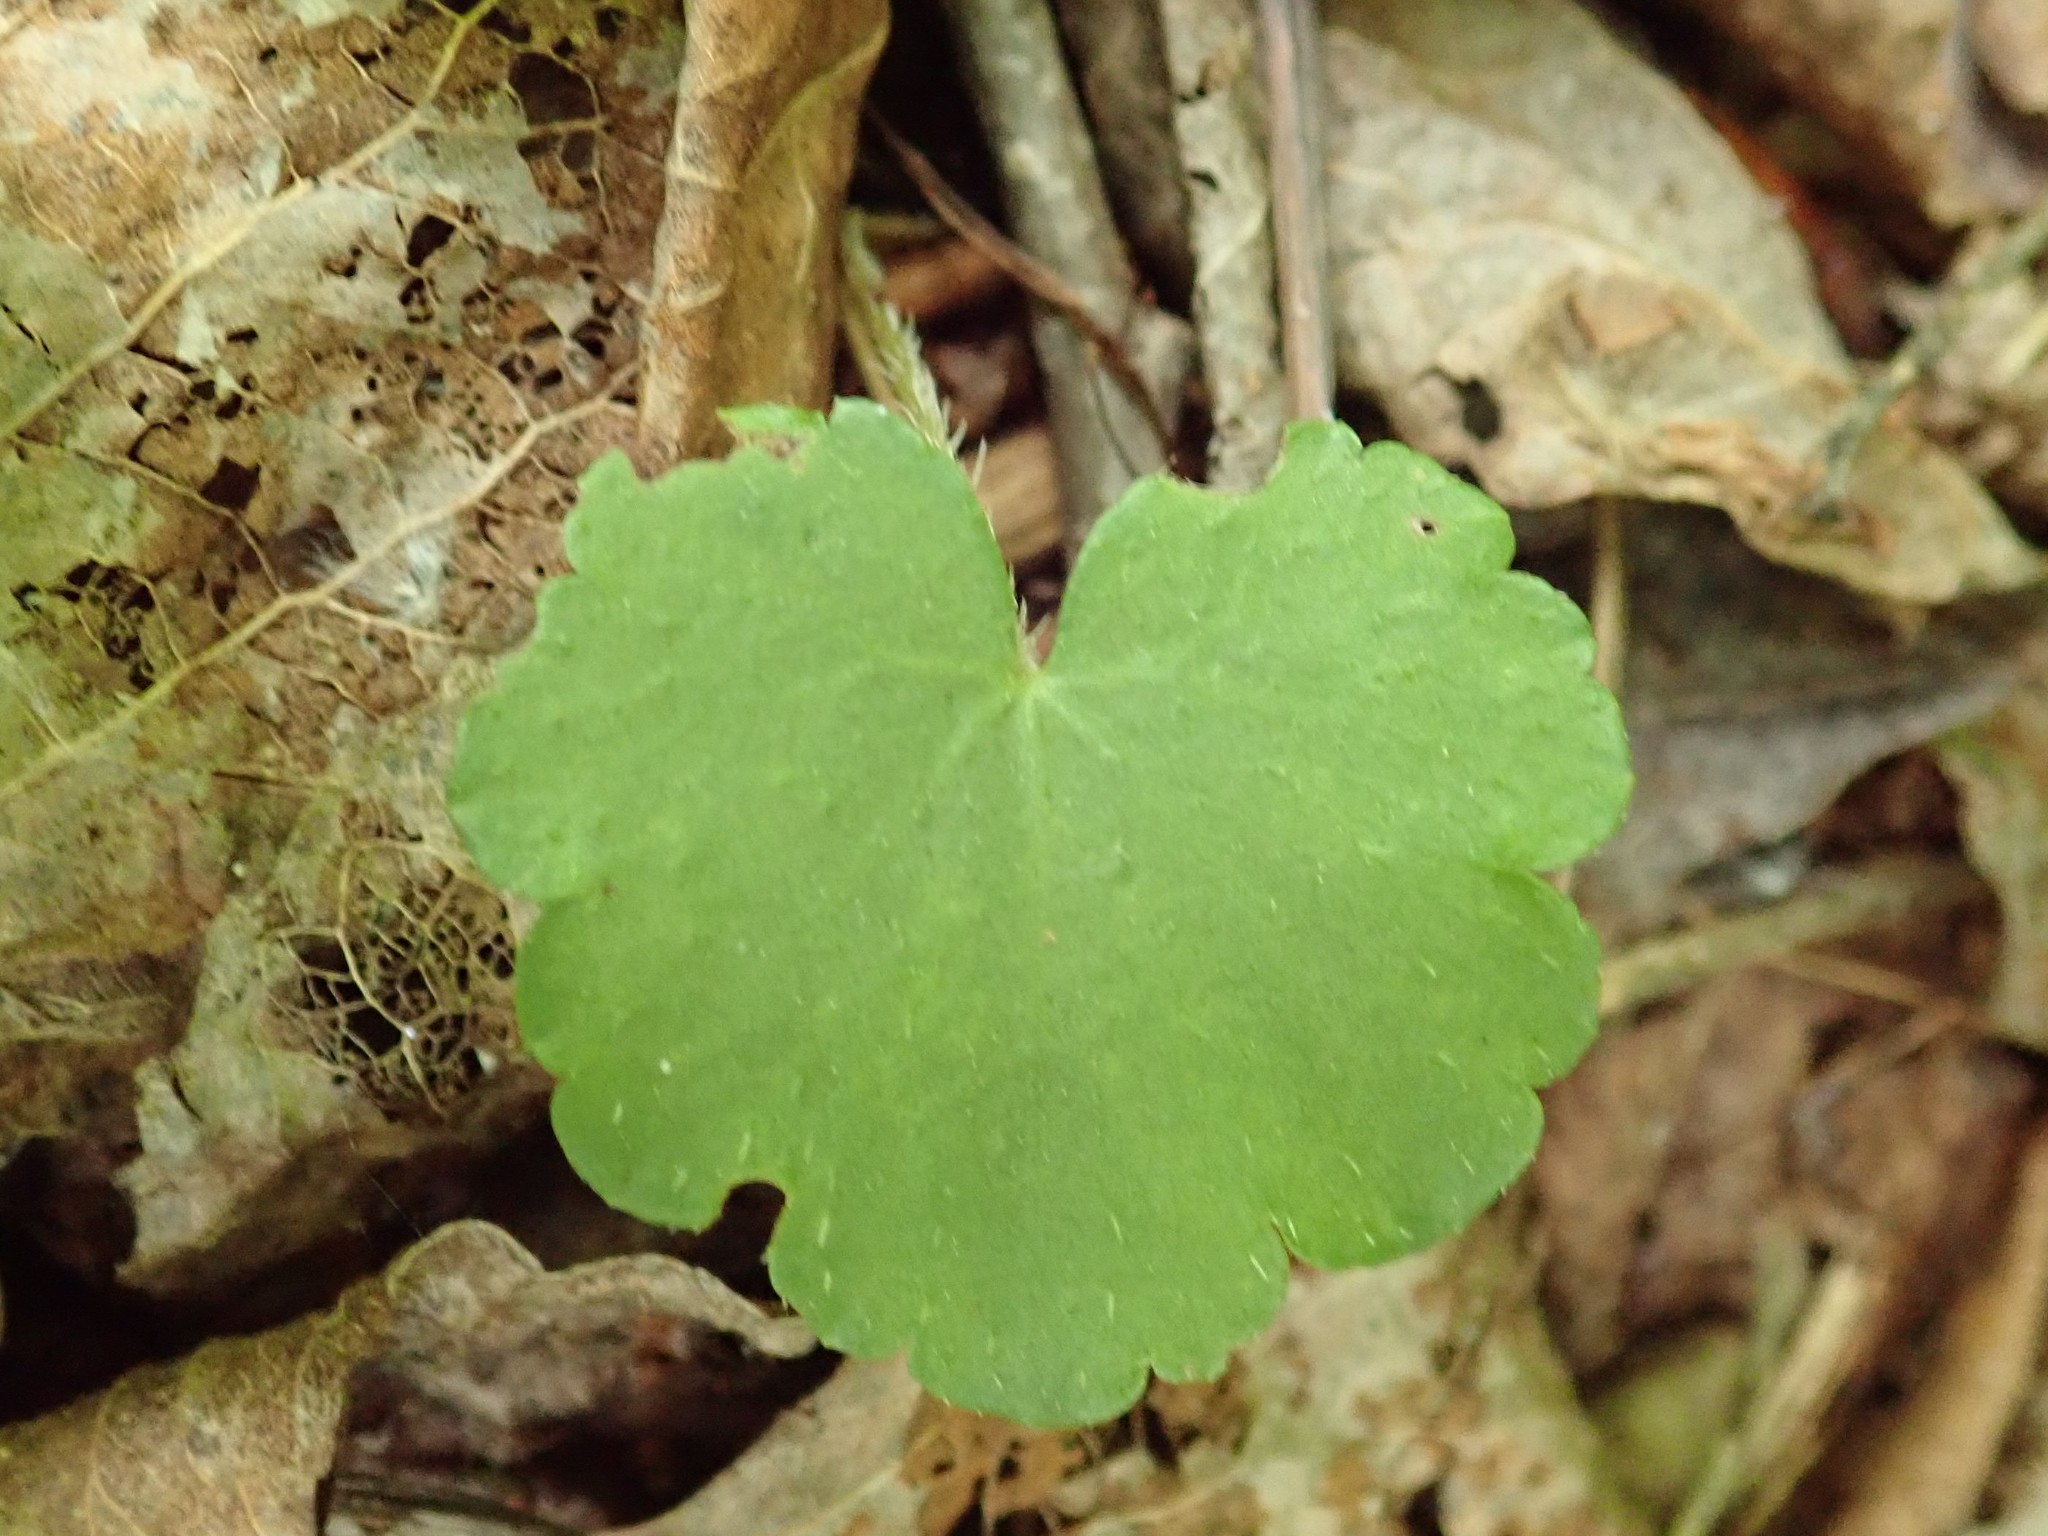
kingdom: Plantae
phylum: Tracheophyta
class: Magnoliopsida
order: Saxifragales
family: Saxifragaceae
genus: Mitella
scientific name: Mitella nuda
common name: Bare-stemmed bishop's-cap
